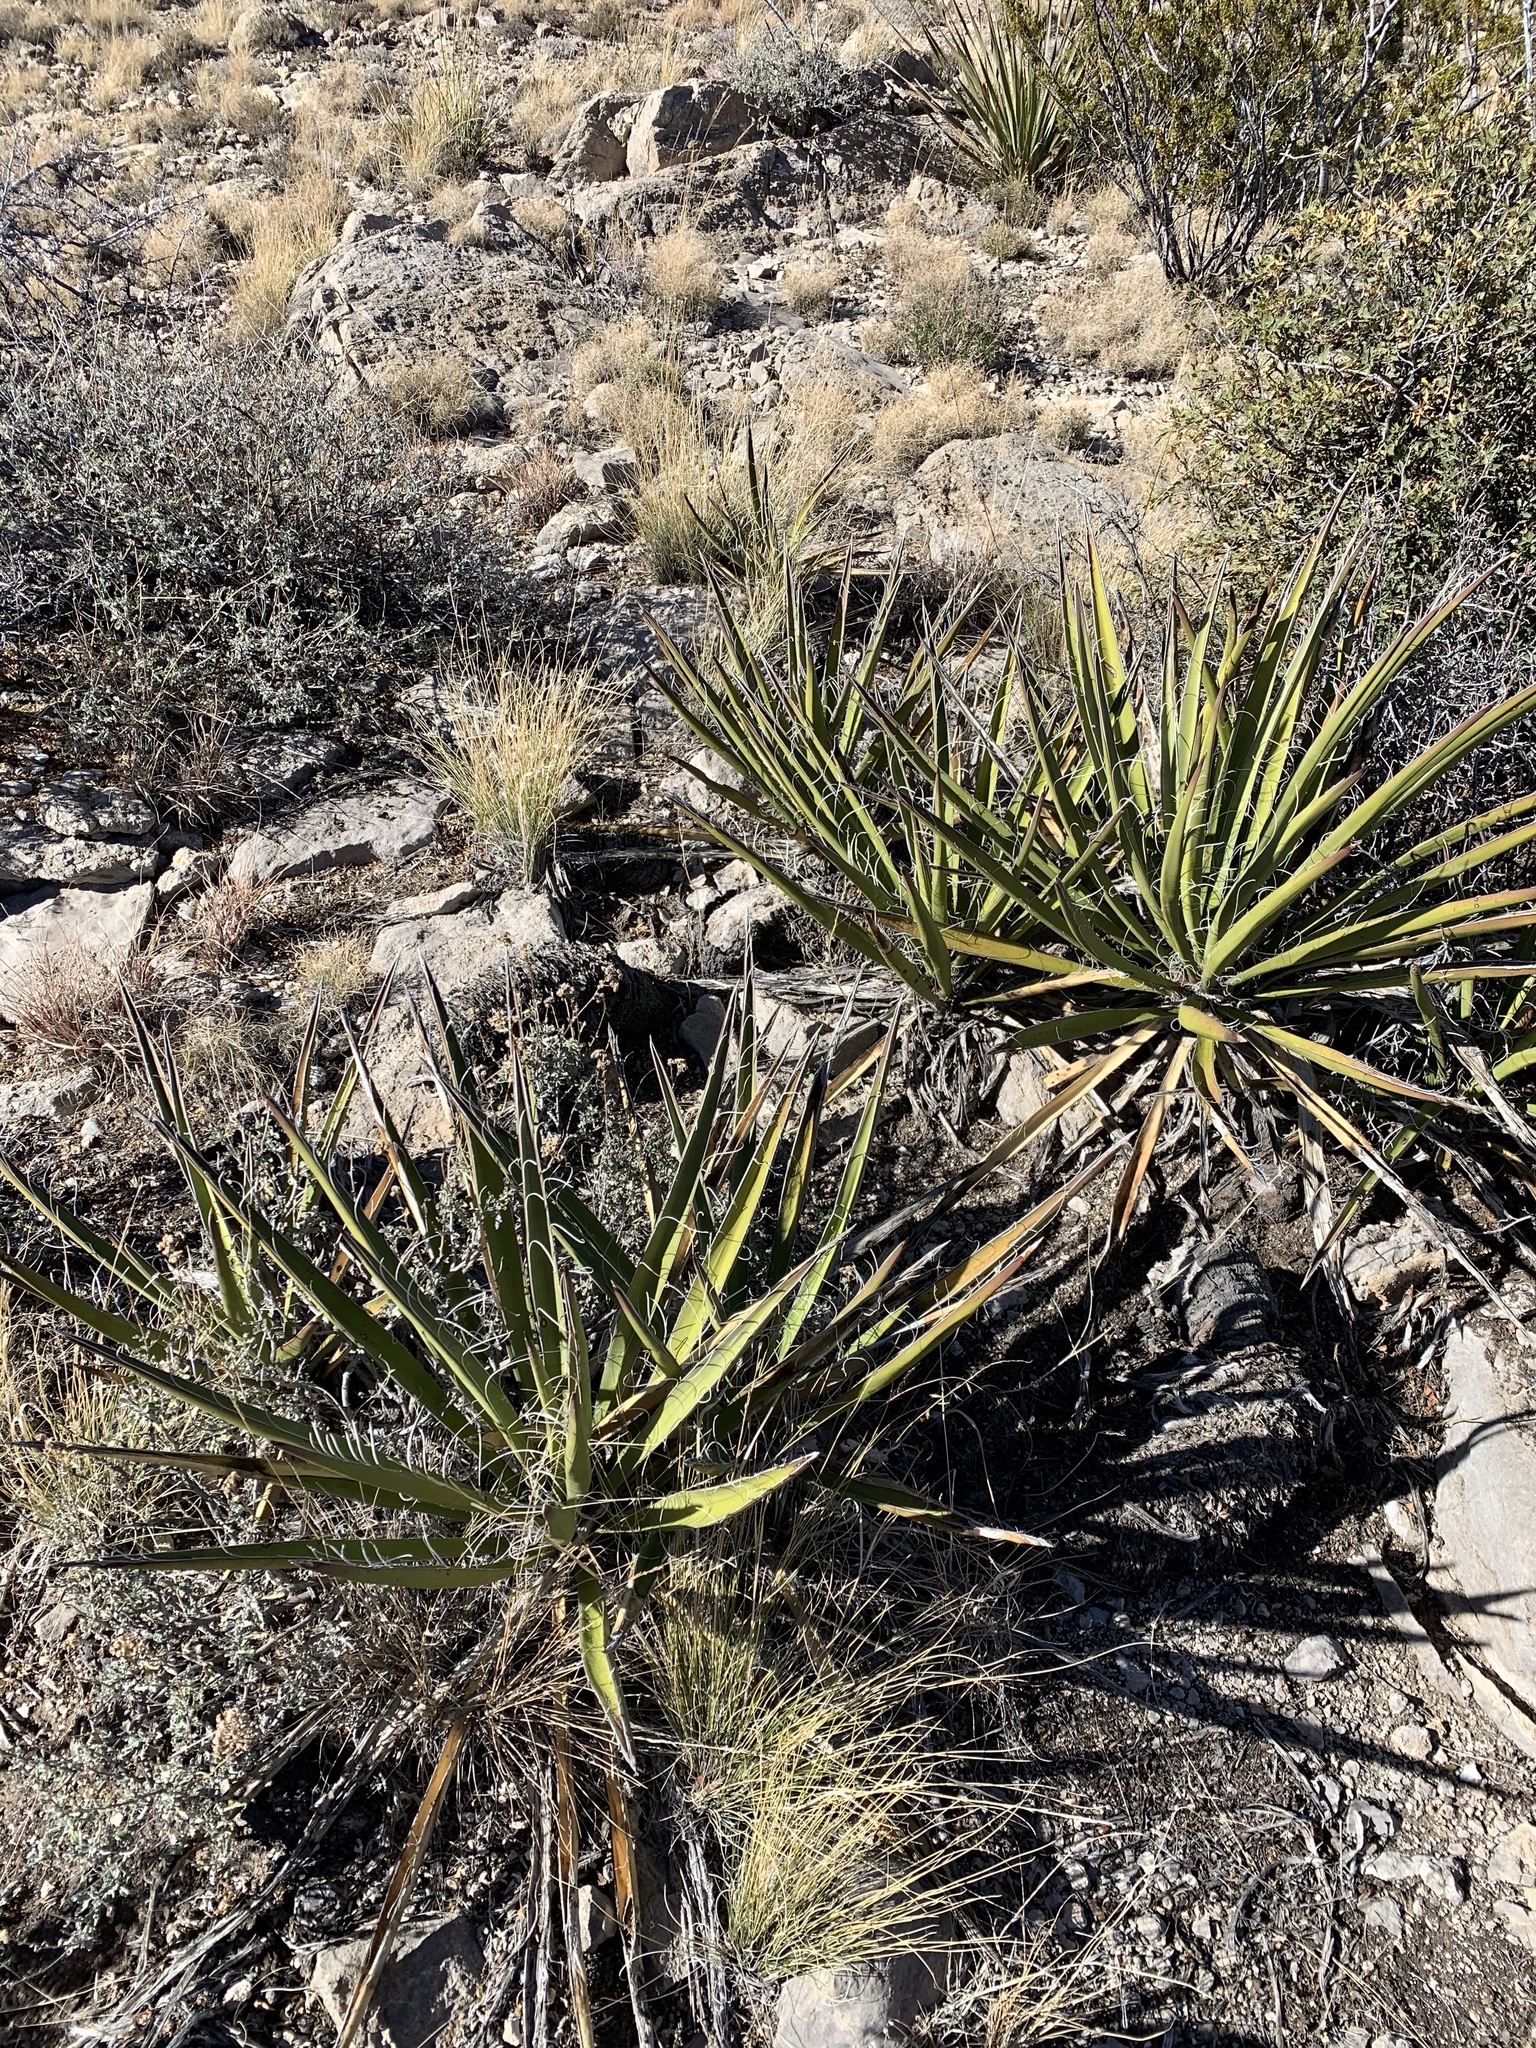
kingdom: Plantae
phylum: Tracheophyta
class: Liliopsida
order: Asparagales
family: Asparagaceae
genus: Yucca
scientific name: Yucca baccata
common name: Banana yucca
